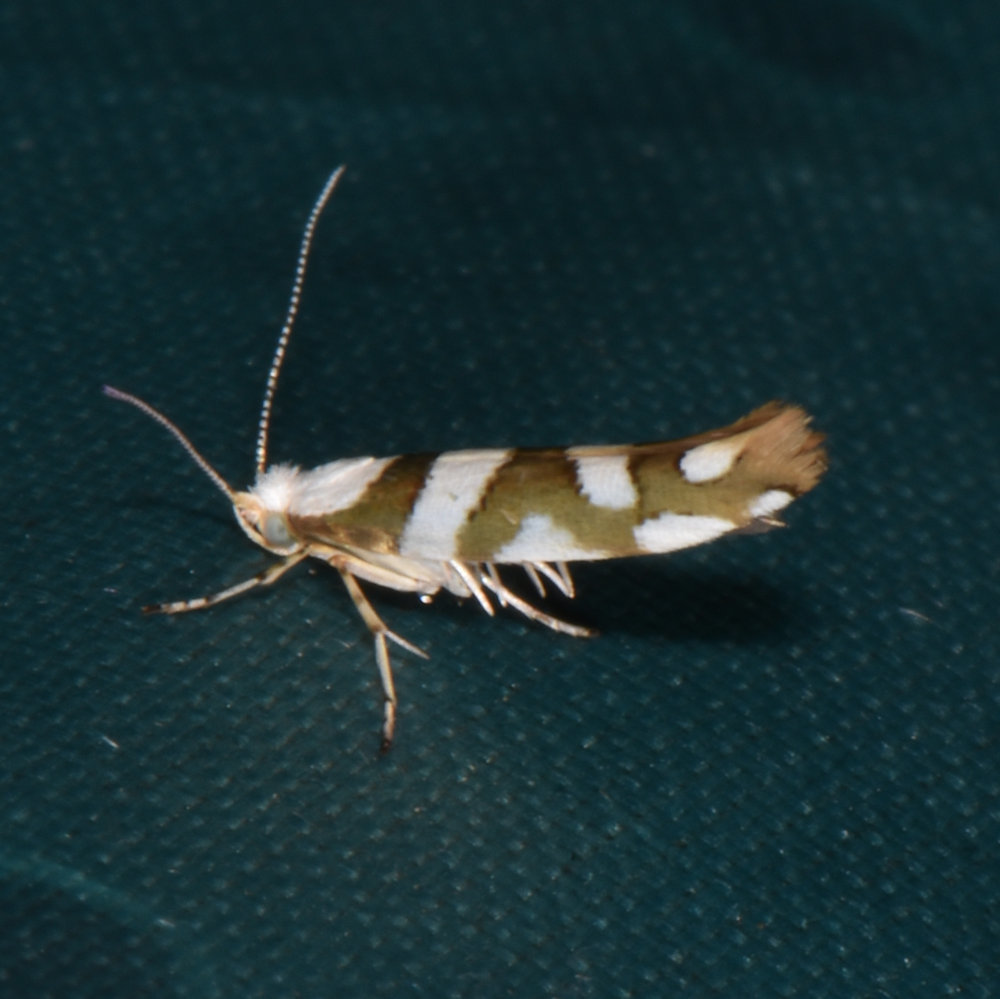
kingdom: Animalia
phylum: Arthropoda
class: Insecta
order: Lepidoptera
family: Argyresthiidae
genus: Argyresthia
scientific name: Argyresthia calliphanes
